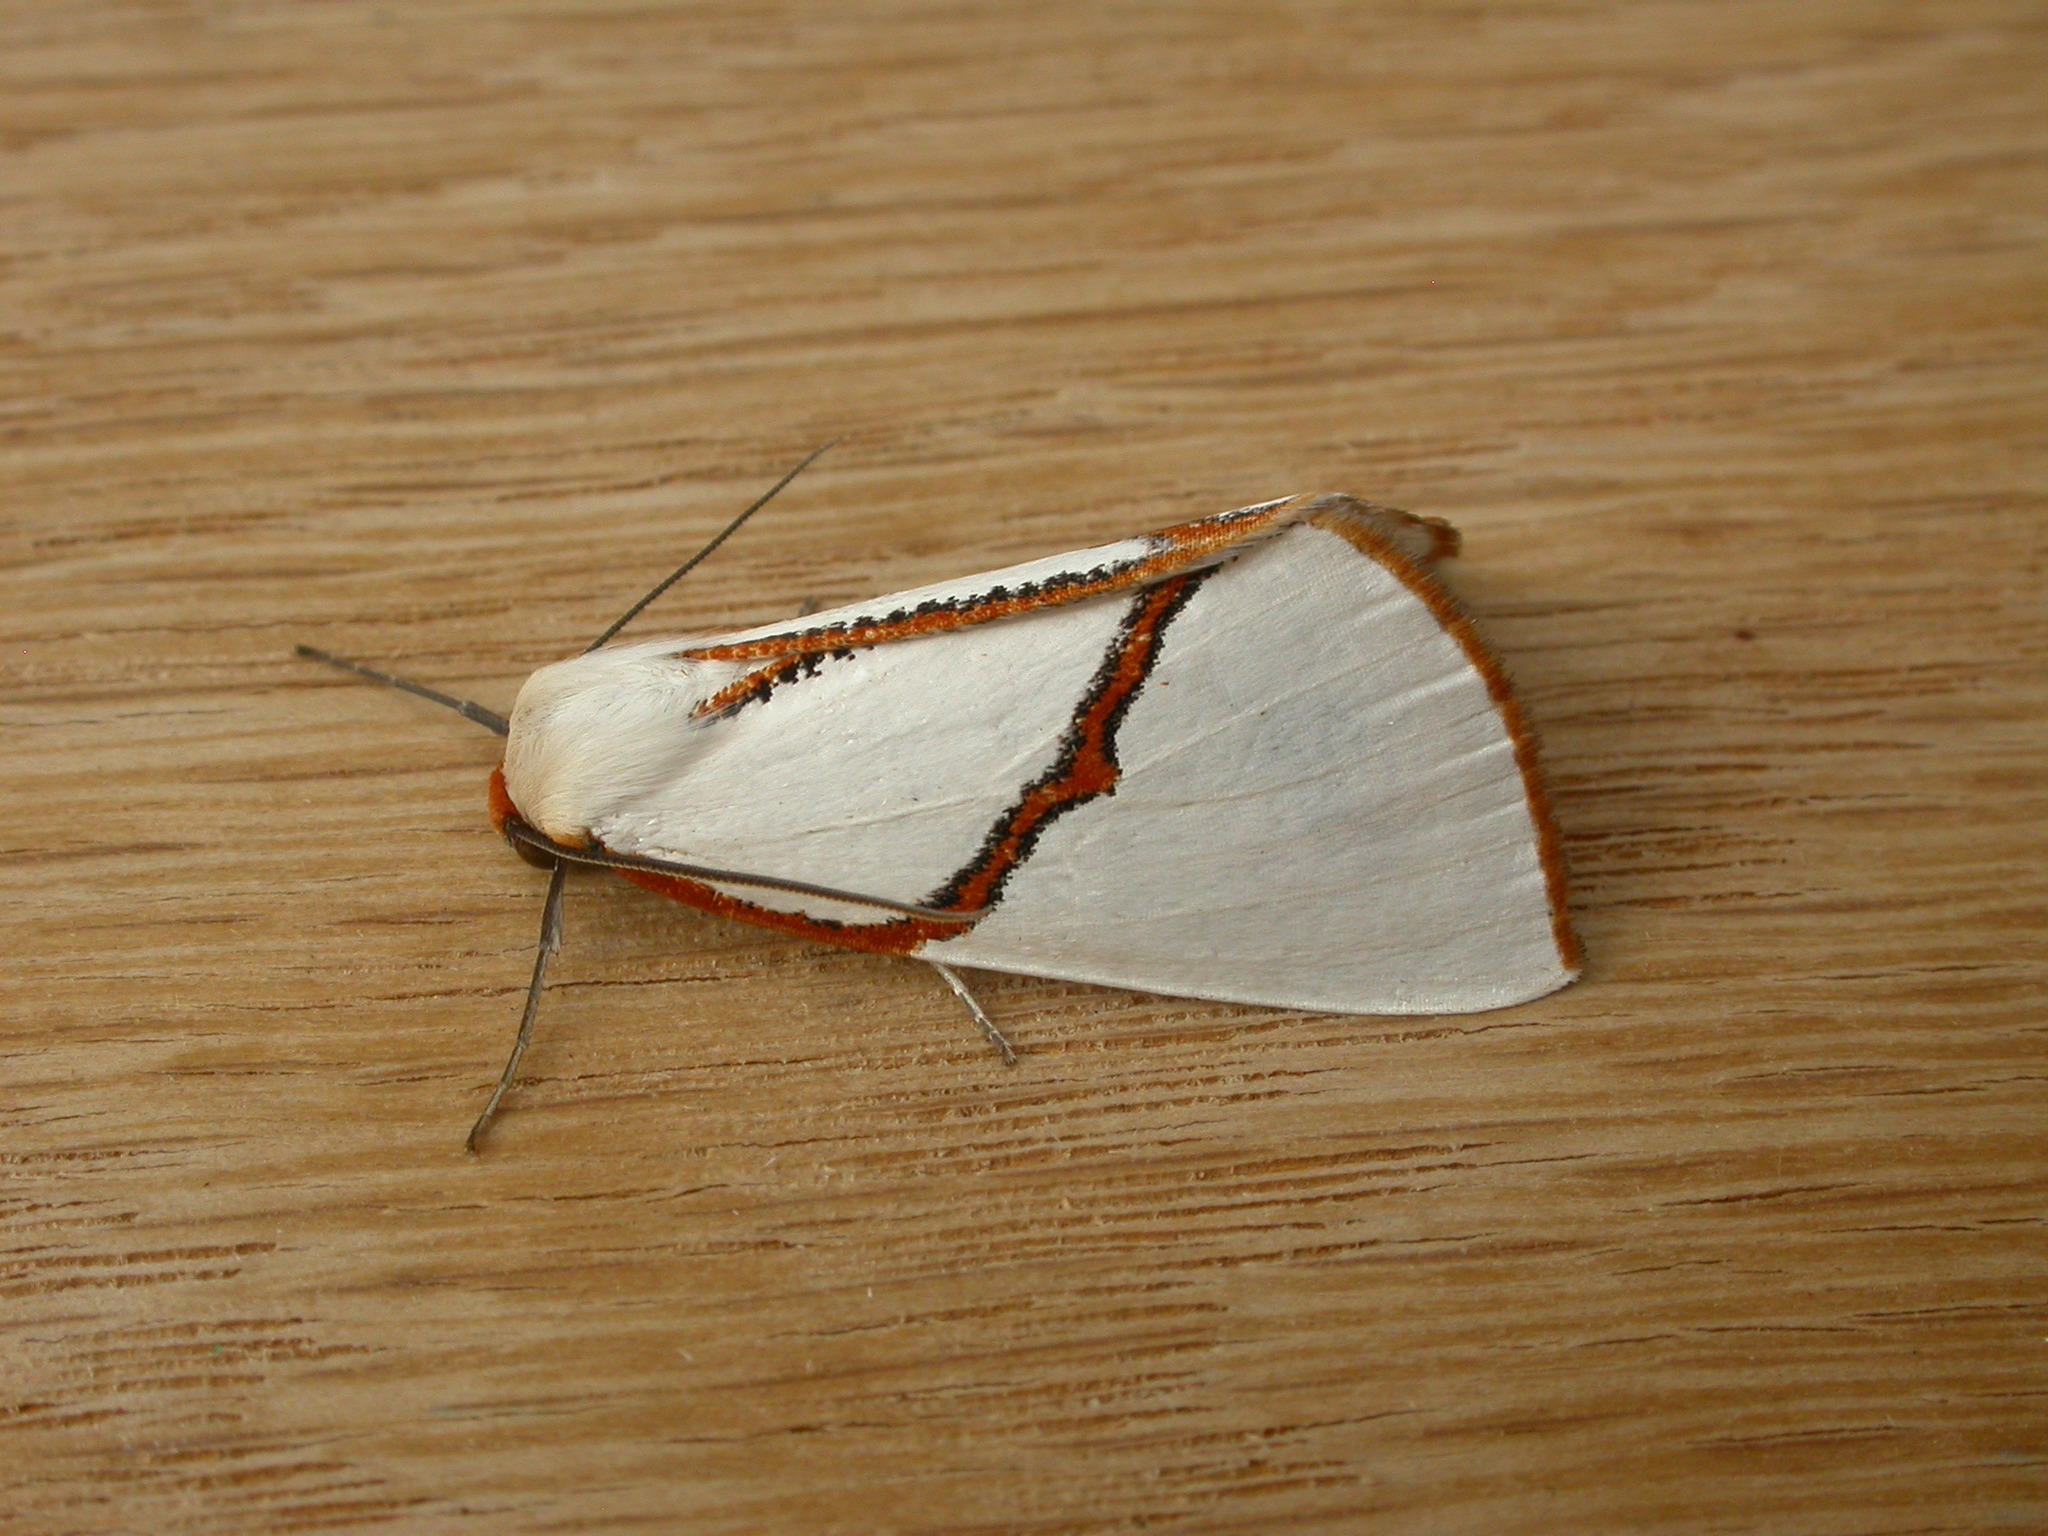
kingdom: Animalia
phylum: Arthropoda
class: Insecta
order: Lepidoptera
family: Geometridae
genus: Thalaina
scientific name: Thalaina selenaea
